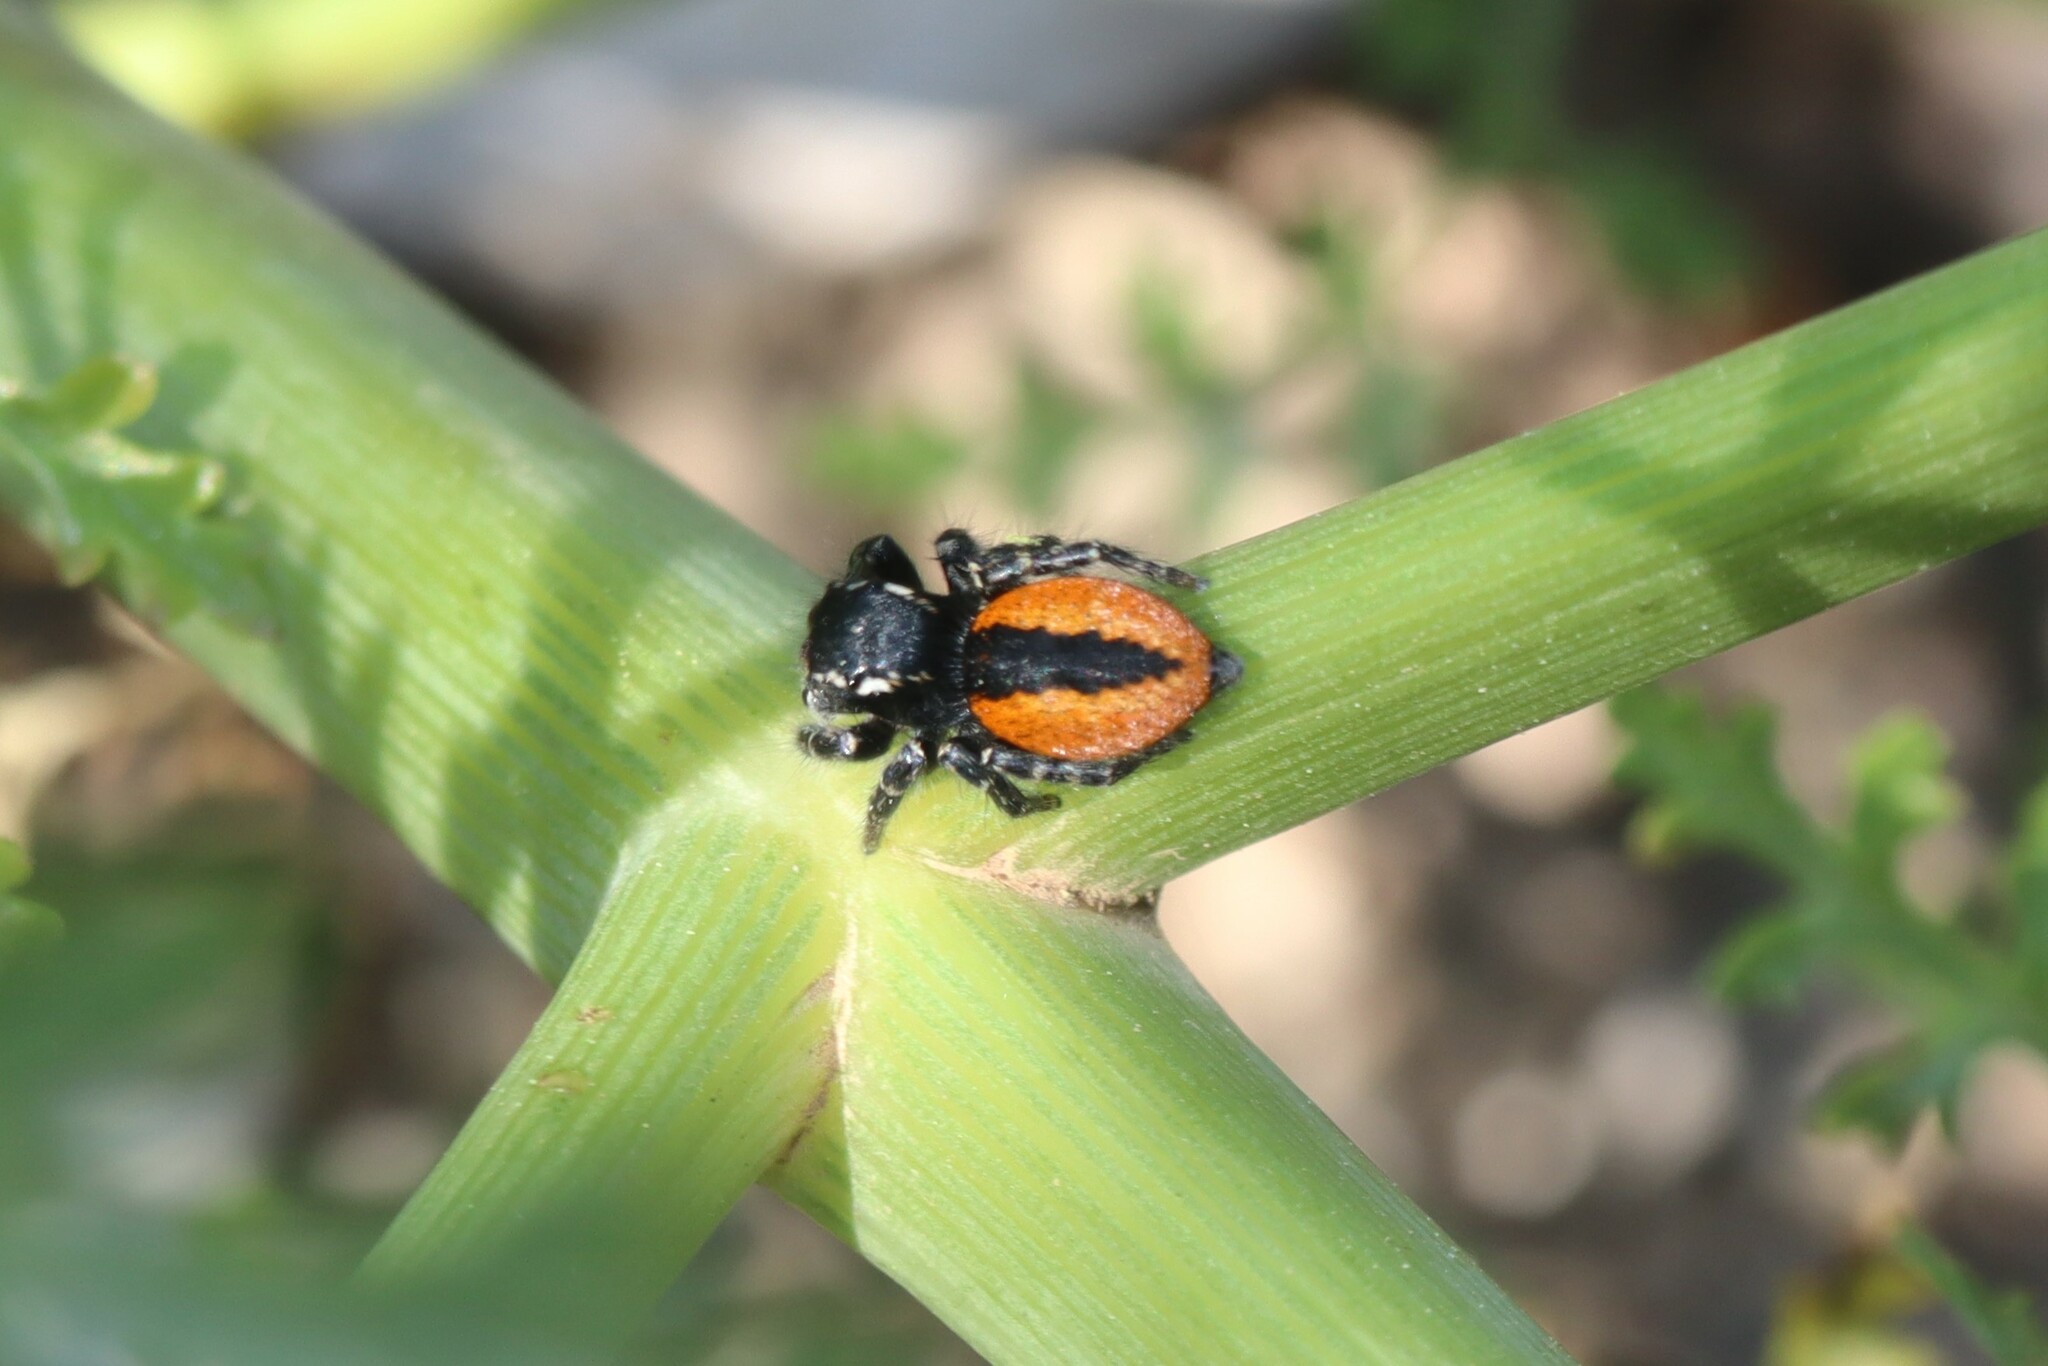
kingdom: Animalia
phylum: Arthropoda
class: Arachnida
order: Araneae
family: Salticidae
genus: Philaeus
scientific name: Philaeus chrysops
